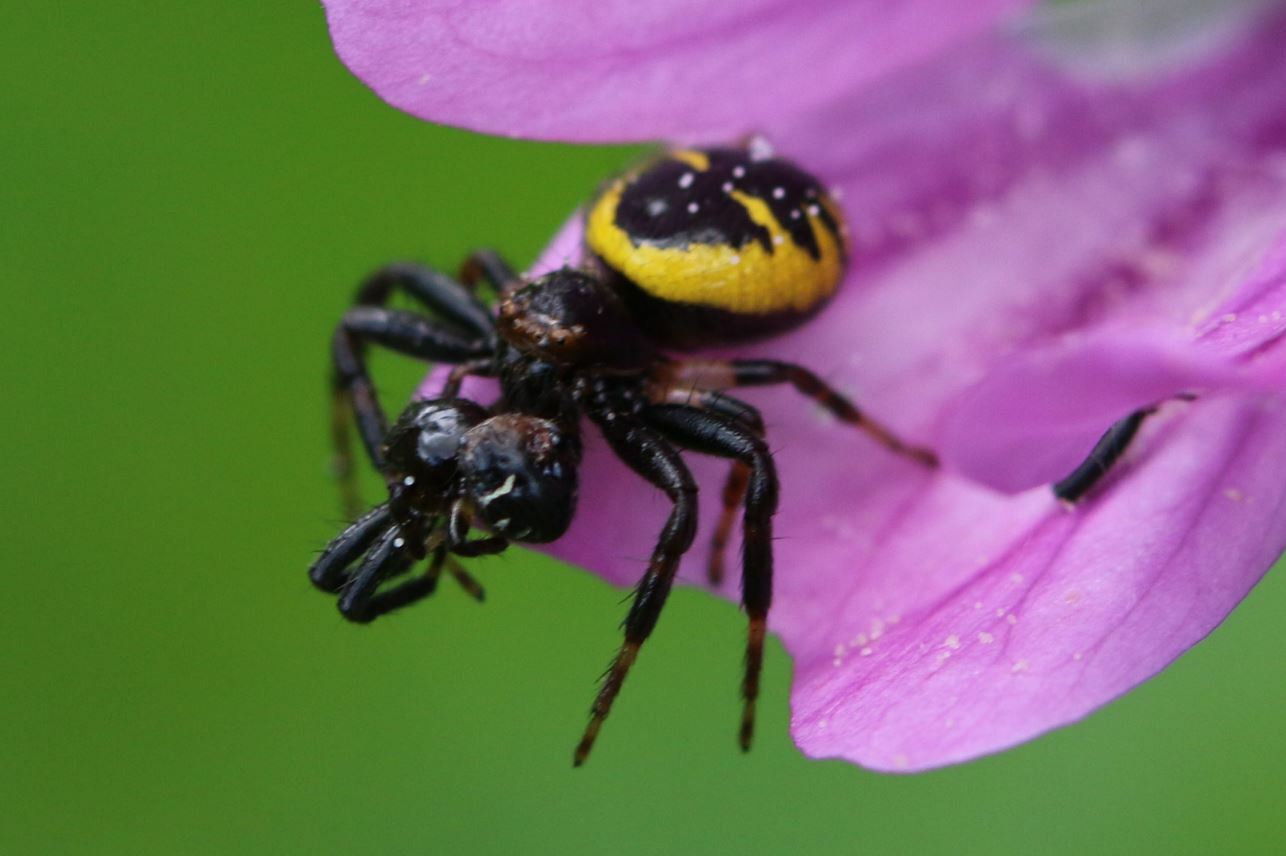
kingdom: Animalia
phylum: Arthropoda
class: Arachnida
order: Araneae
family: Thomisidae
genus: Synema
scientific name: Synema globosum
